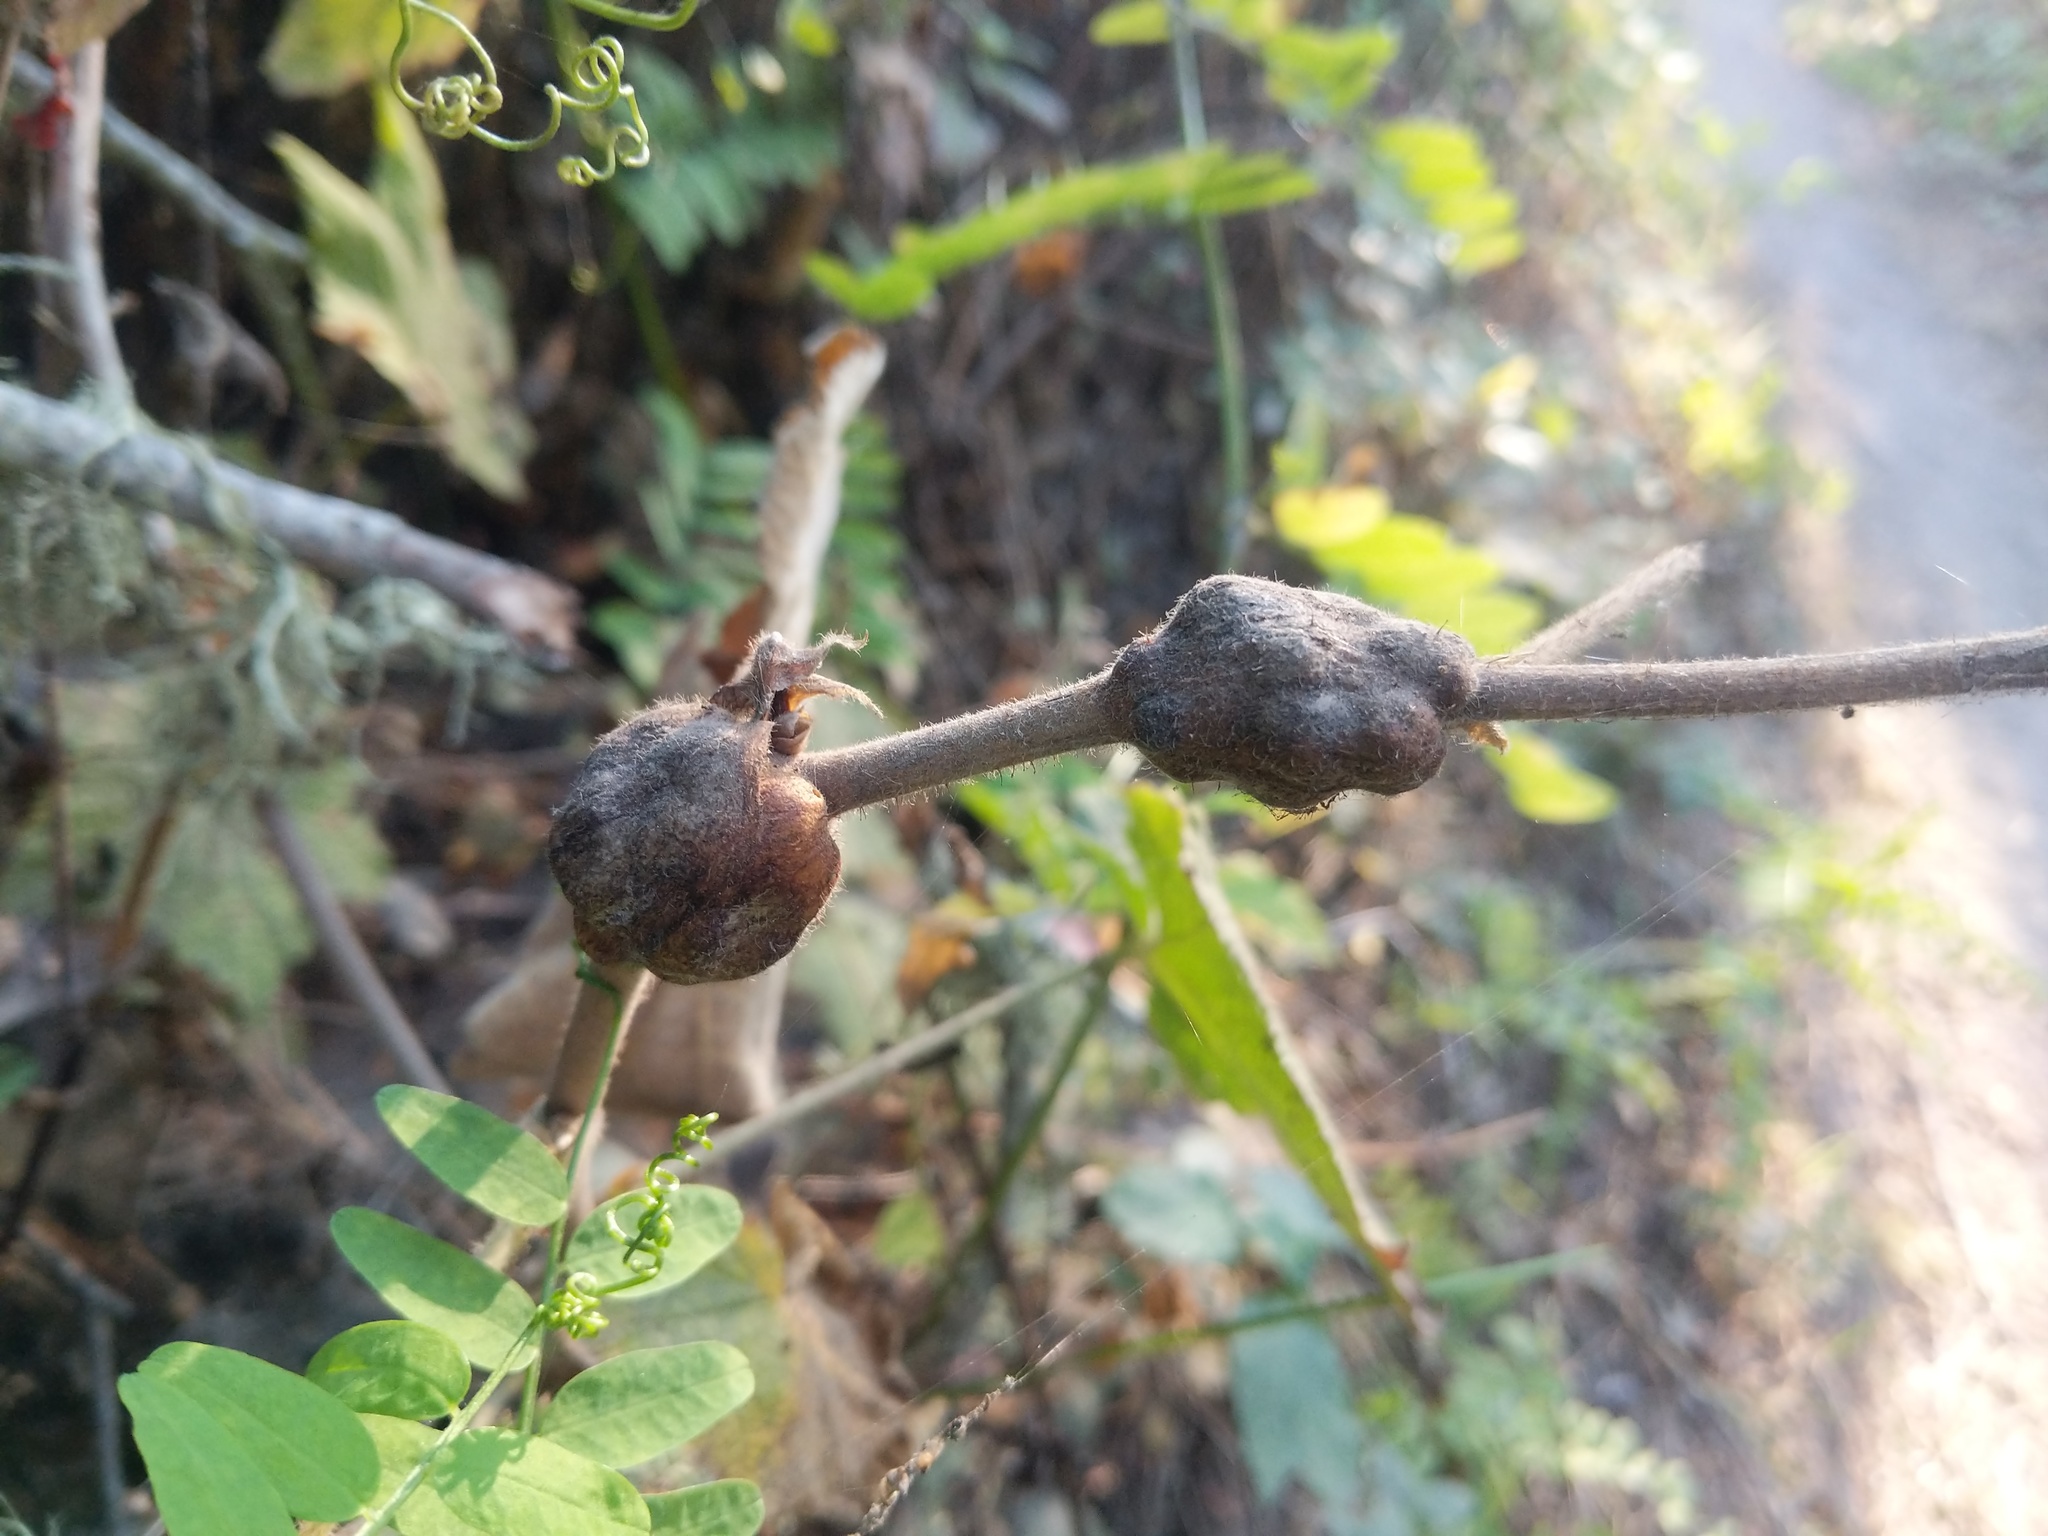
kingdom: Animalia
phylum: Arthropoda
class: Insecta
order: Hymenoptera
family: Cynipidae
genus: Diastrophus
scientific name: Diastrophus
